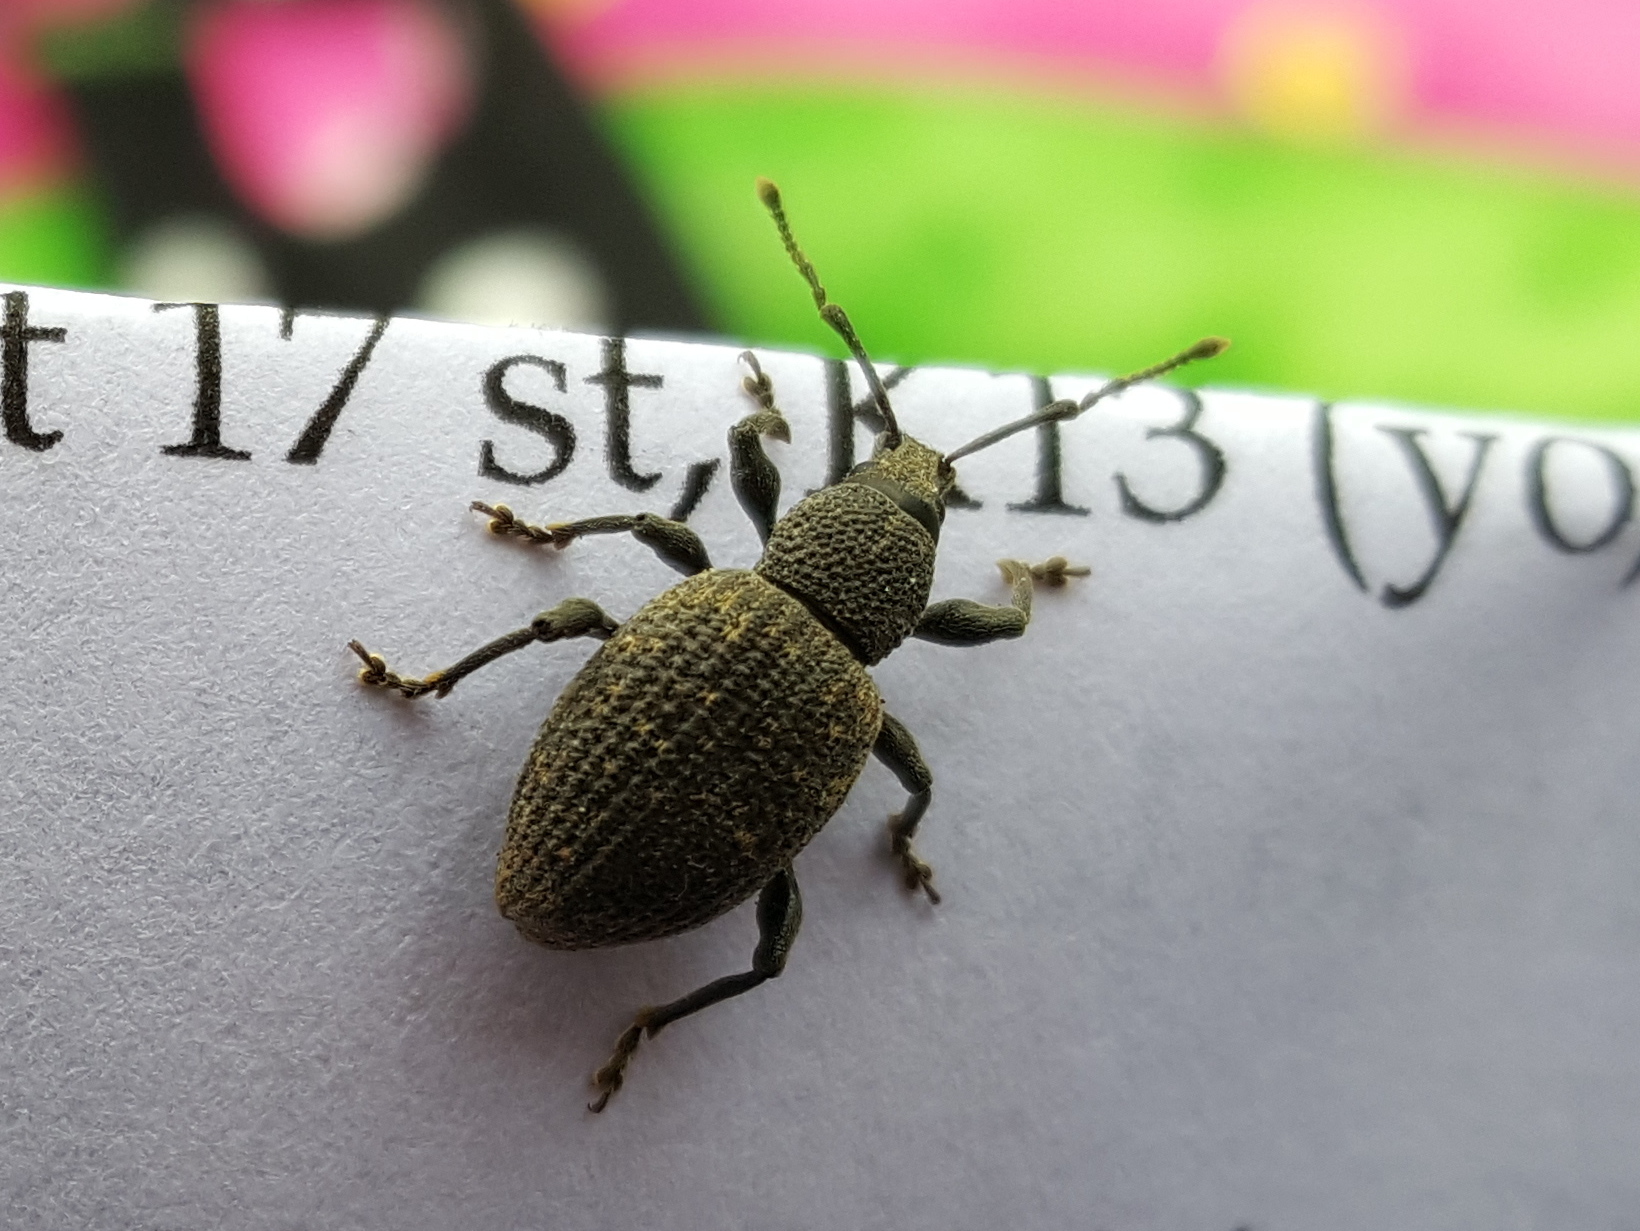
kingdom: Animalia
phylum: Arthropoda
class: Insecta
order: Coleoptera
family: Curculionidae
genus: Otiorhynchus
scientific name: Otiorhynchus sulcatus
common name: Black vine weevil
